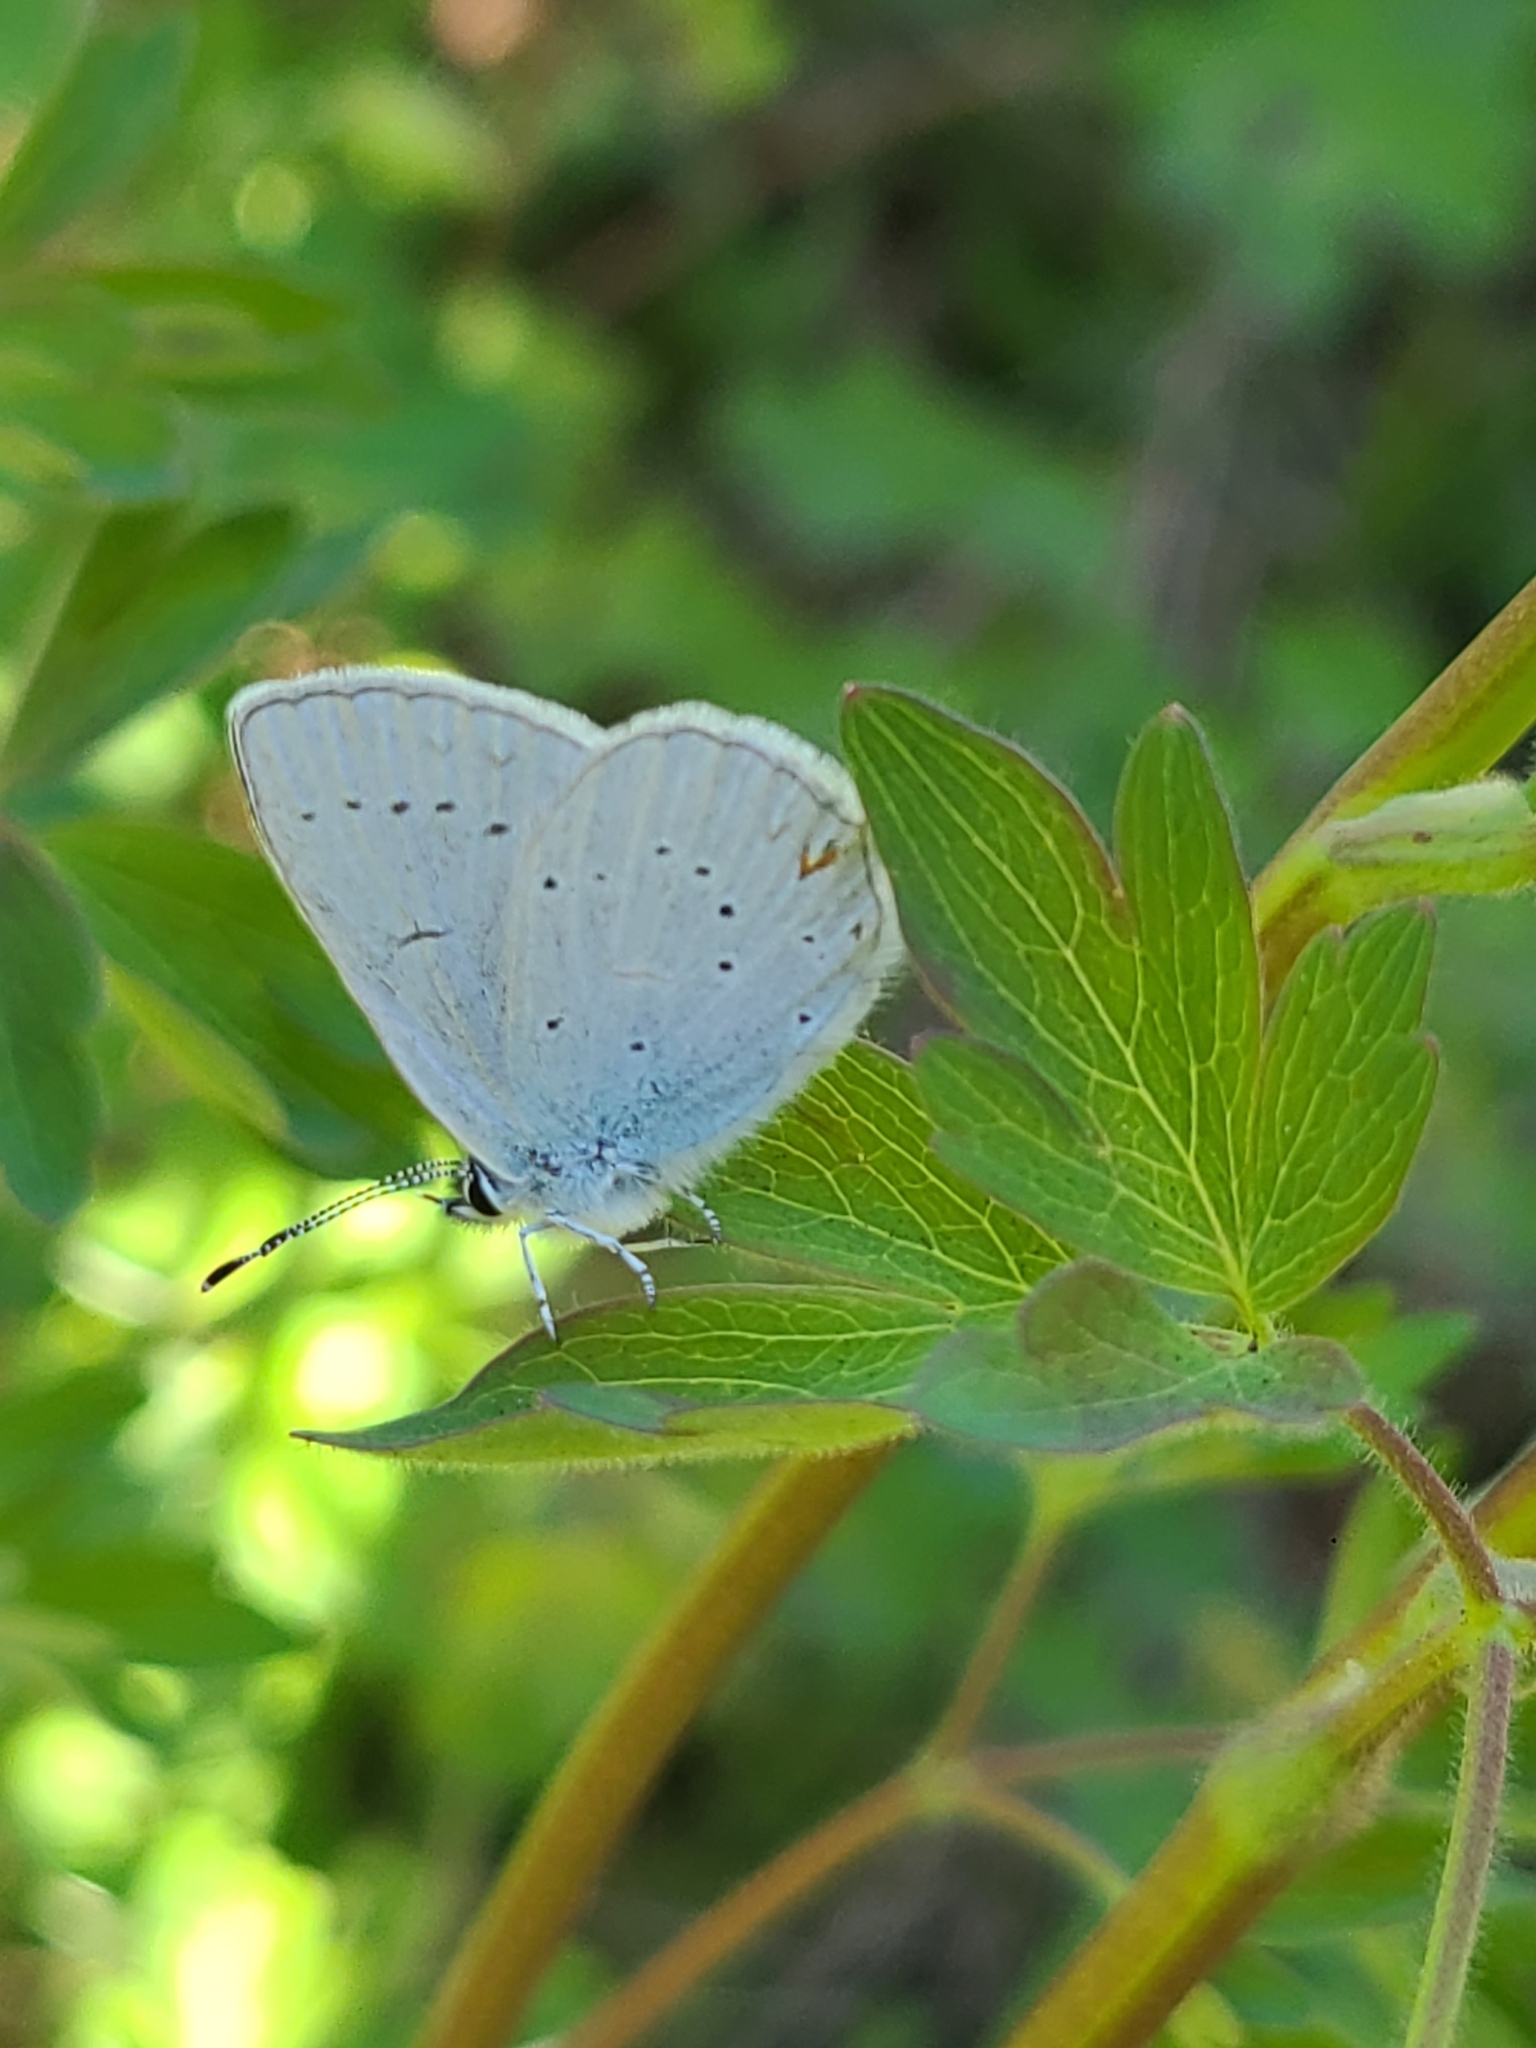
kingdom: Animalia
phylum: Arthropoda
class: Insecta
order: Lepidoptera
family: Lycaenidae
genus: Elkalyce
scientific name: Elkalyce amyntula
